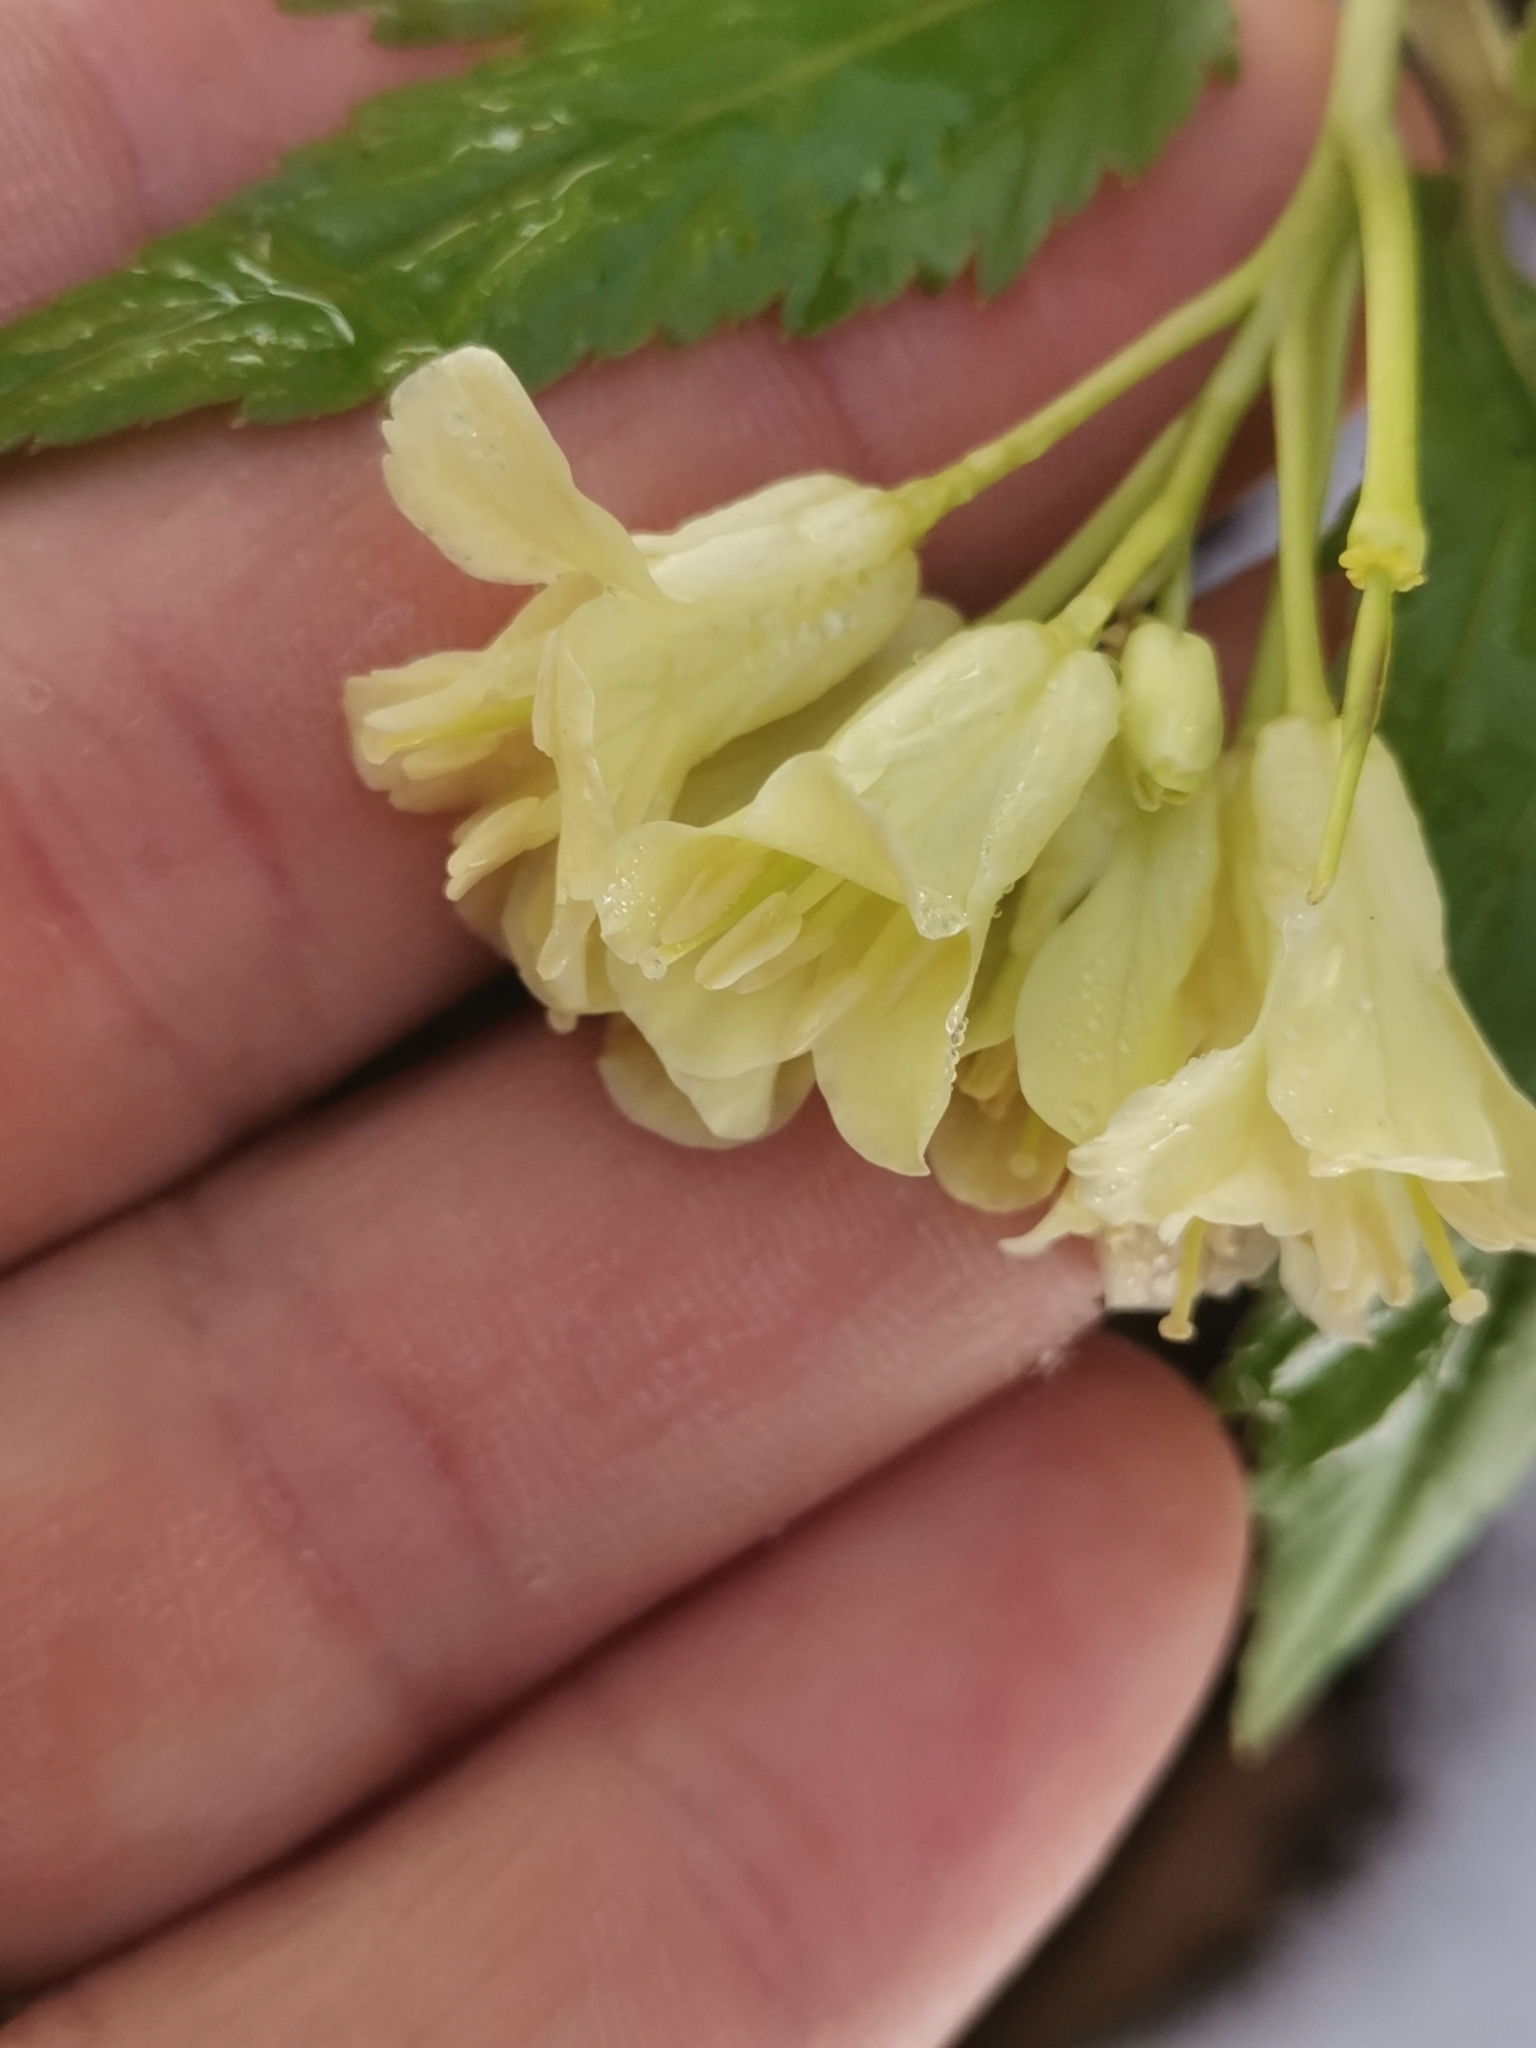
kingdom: Plantae
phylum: Tracheophyta
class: Magnoliopsida
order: Brassicales
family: Brassicaceae
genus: Cardamine
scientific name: Cardamine enneaphyllos
